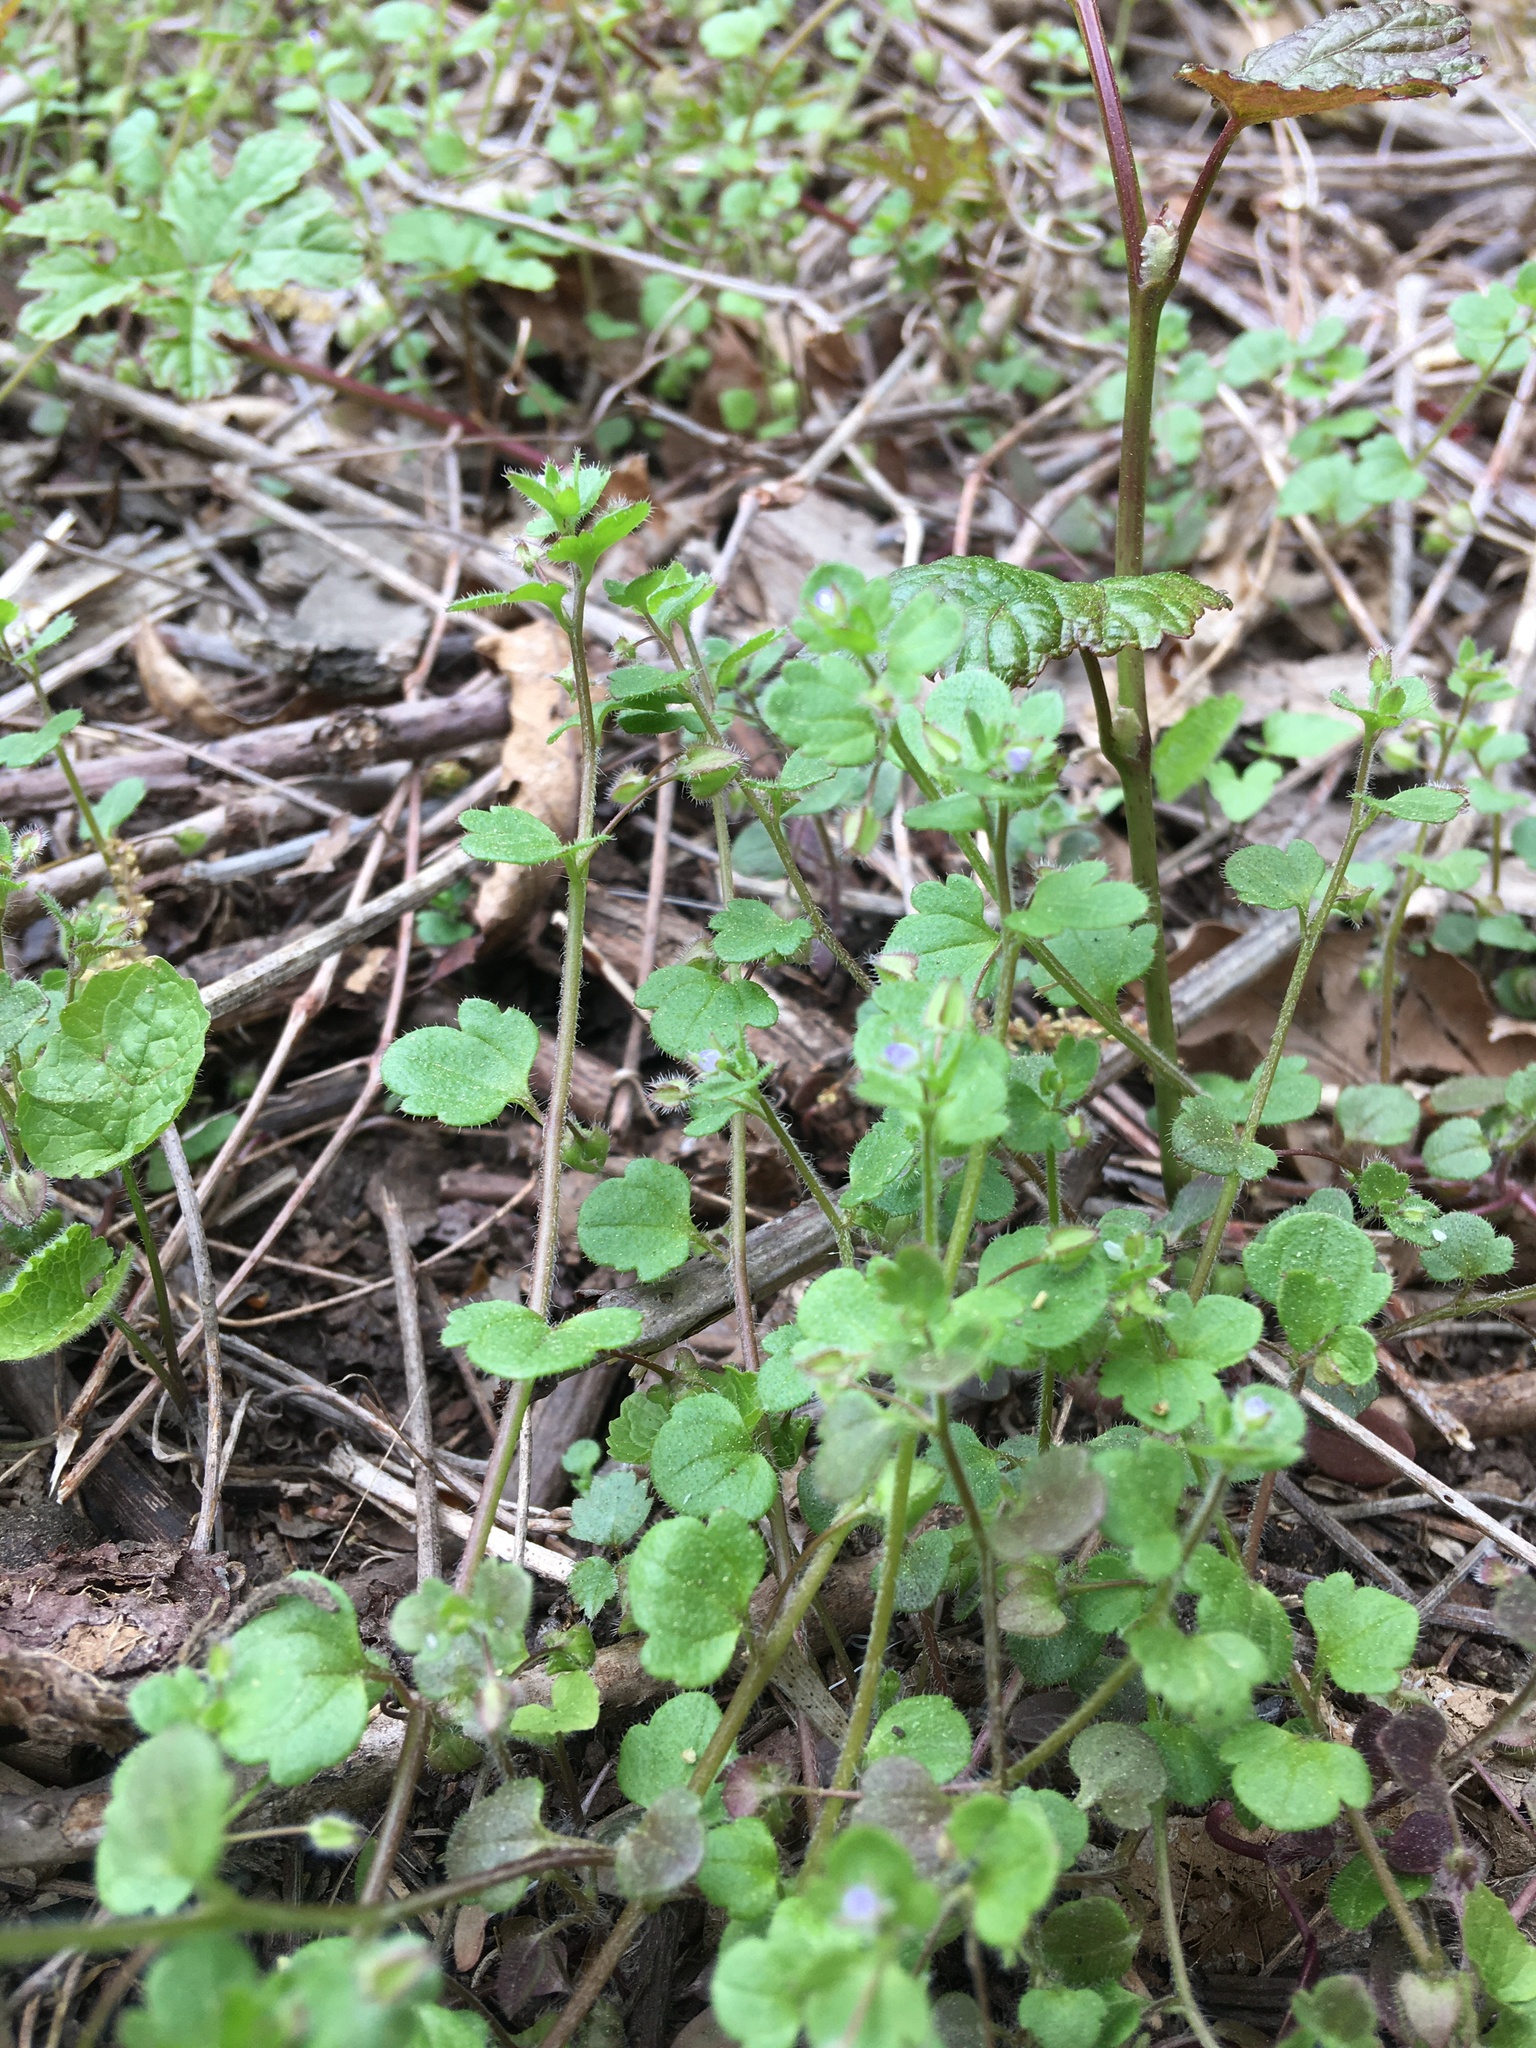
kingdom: Plantae
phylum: Tracheophyta
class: Magnoliopsida
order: Lamiales
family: Plantaginaceae
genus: Veronica
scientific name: Veronica hederifolia
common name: Ivy-leaved speedwell
